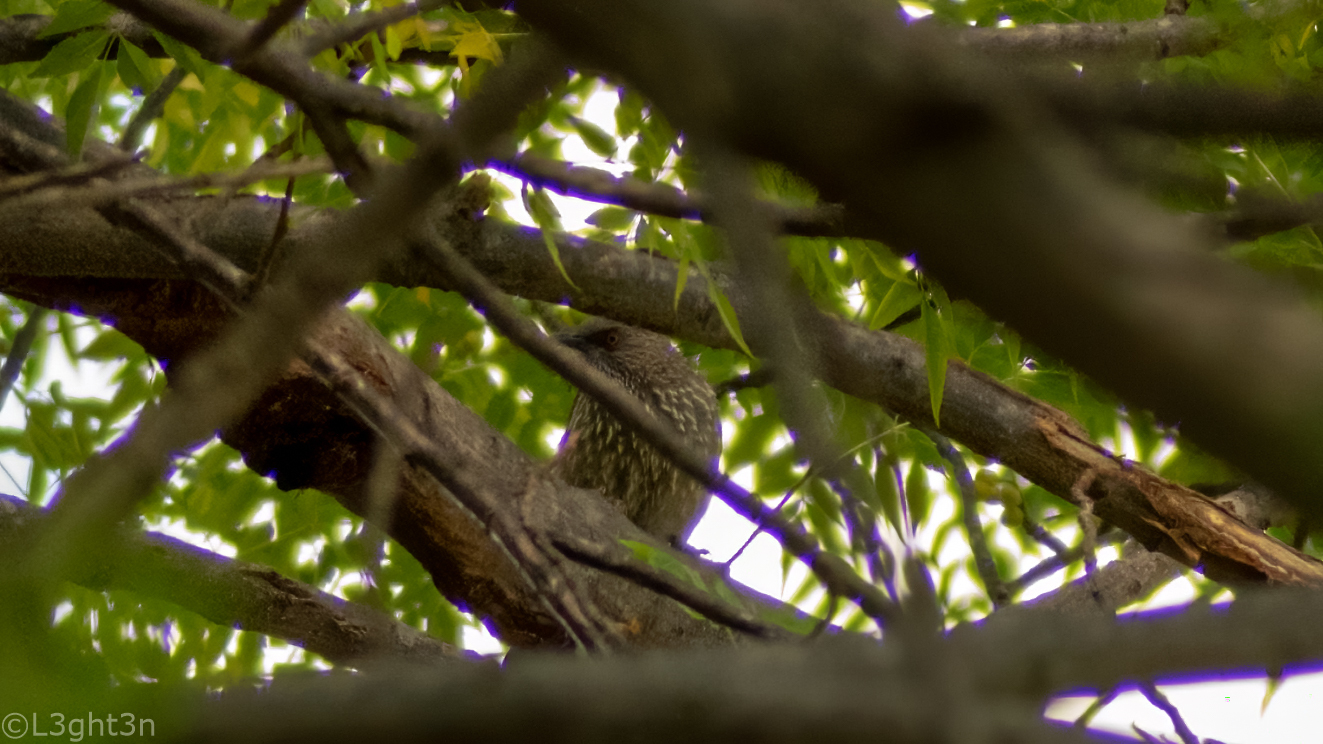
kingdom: Animalia
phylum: Chordata
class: Aves
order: Passeriformes
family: Leiothrichidae
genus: Turdoides
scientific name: Turdoides jardineii
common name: Arrow-marked babbler
